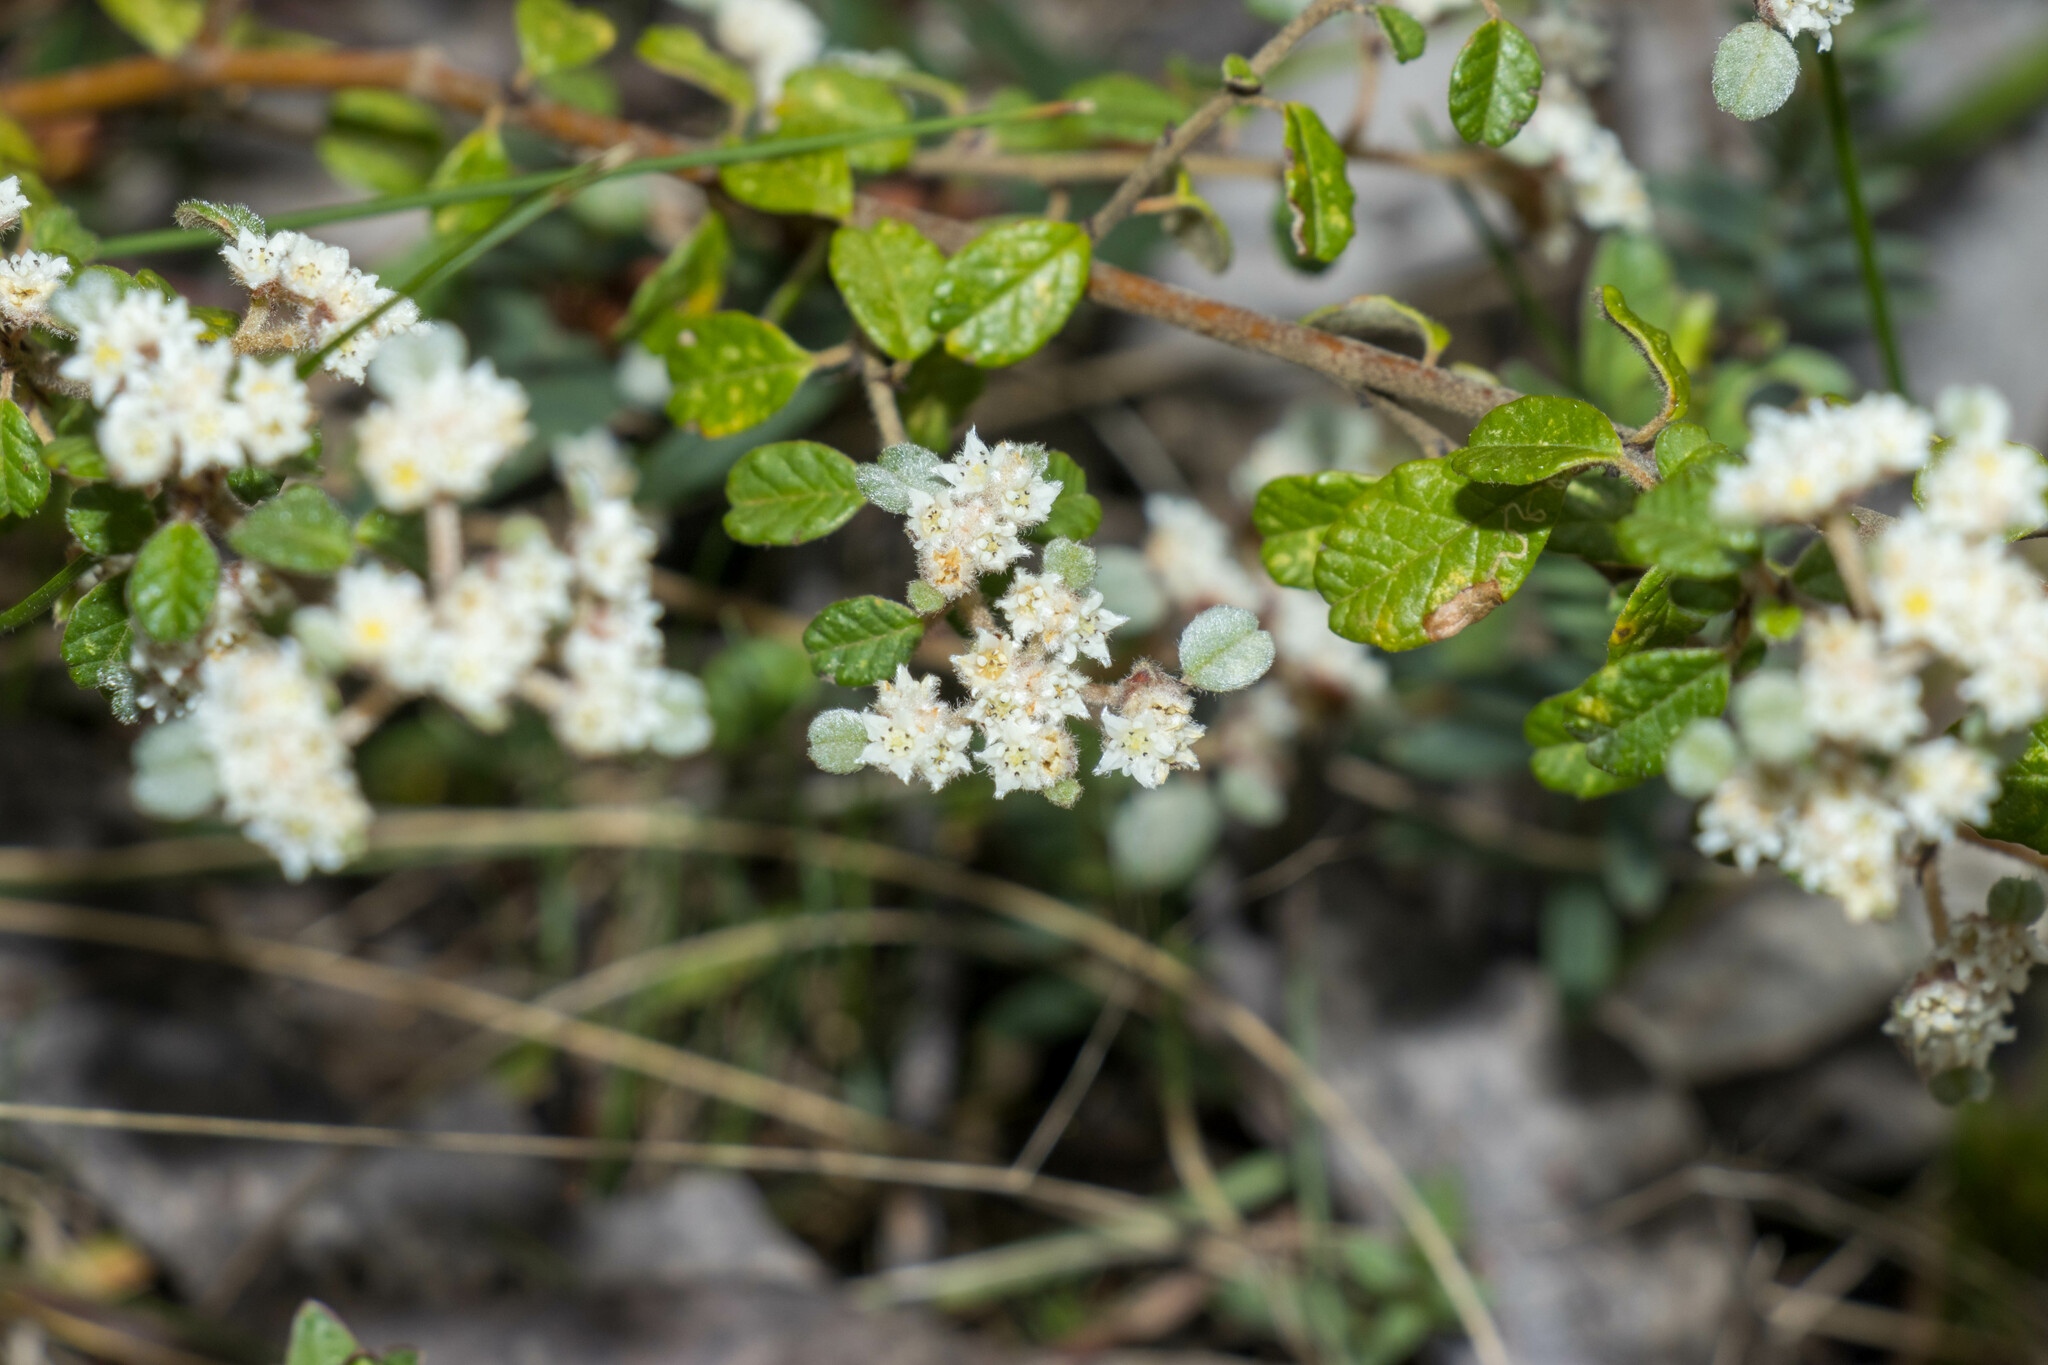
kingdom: Plantae
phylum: Tracheophyta
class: Magnoliopsida
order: Rosales
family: Rhamnaceae
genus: Spyridium
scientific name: Spyridium parvifolium
